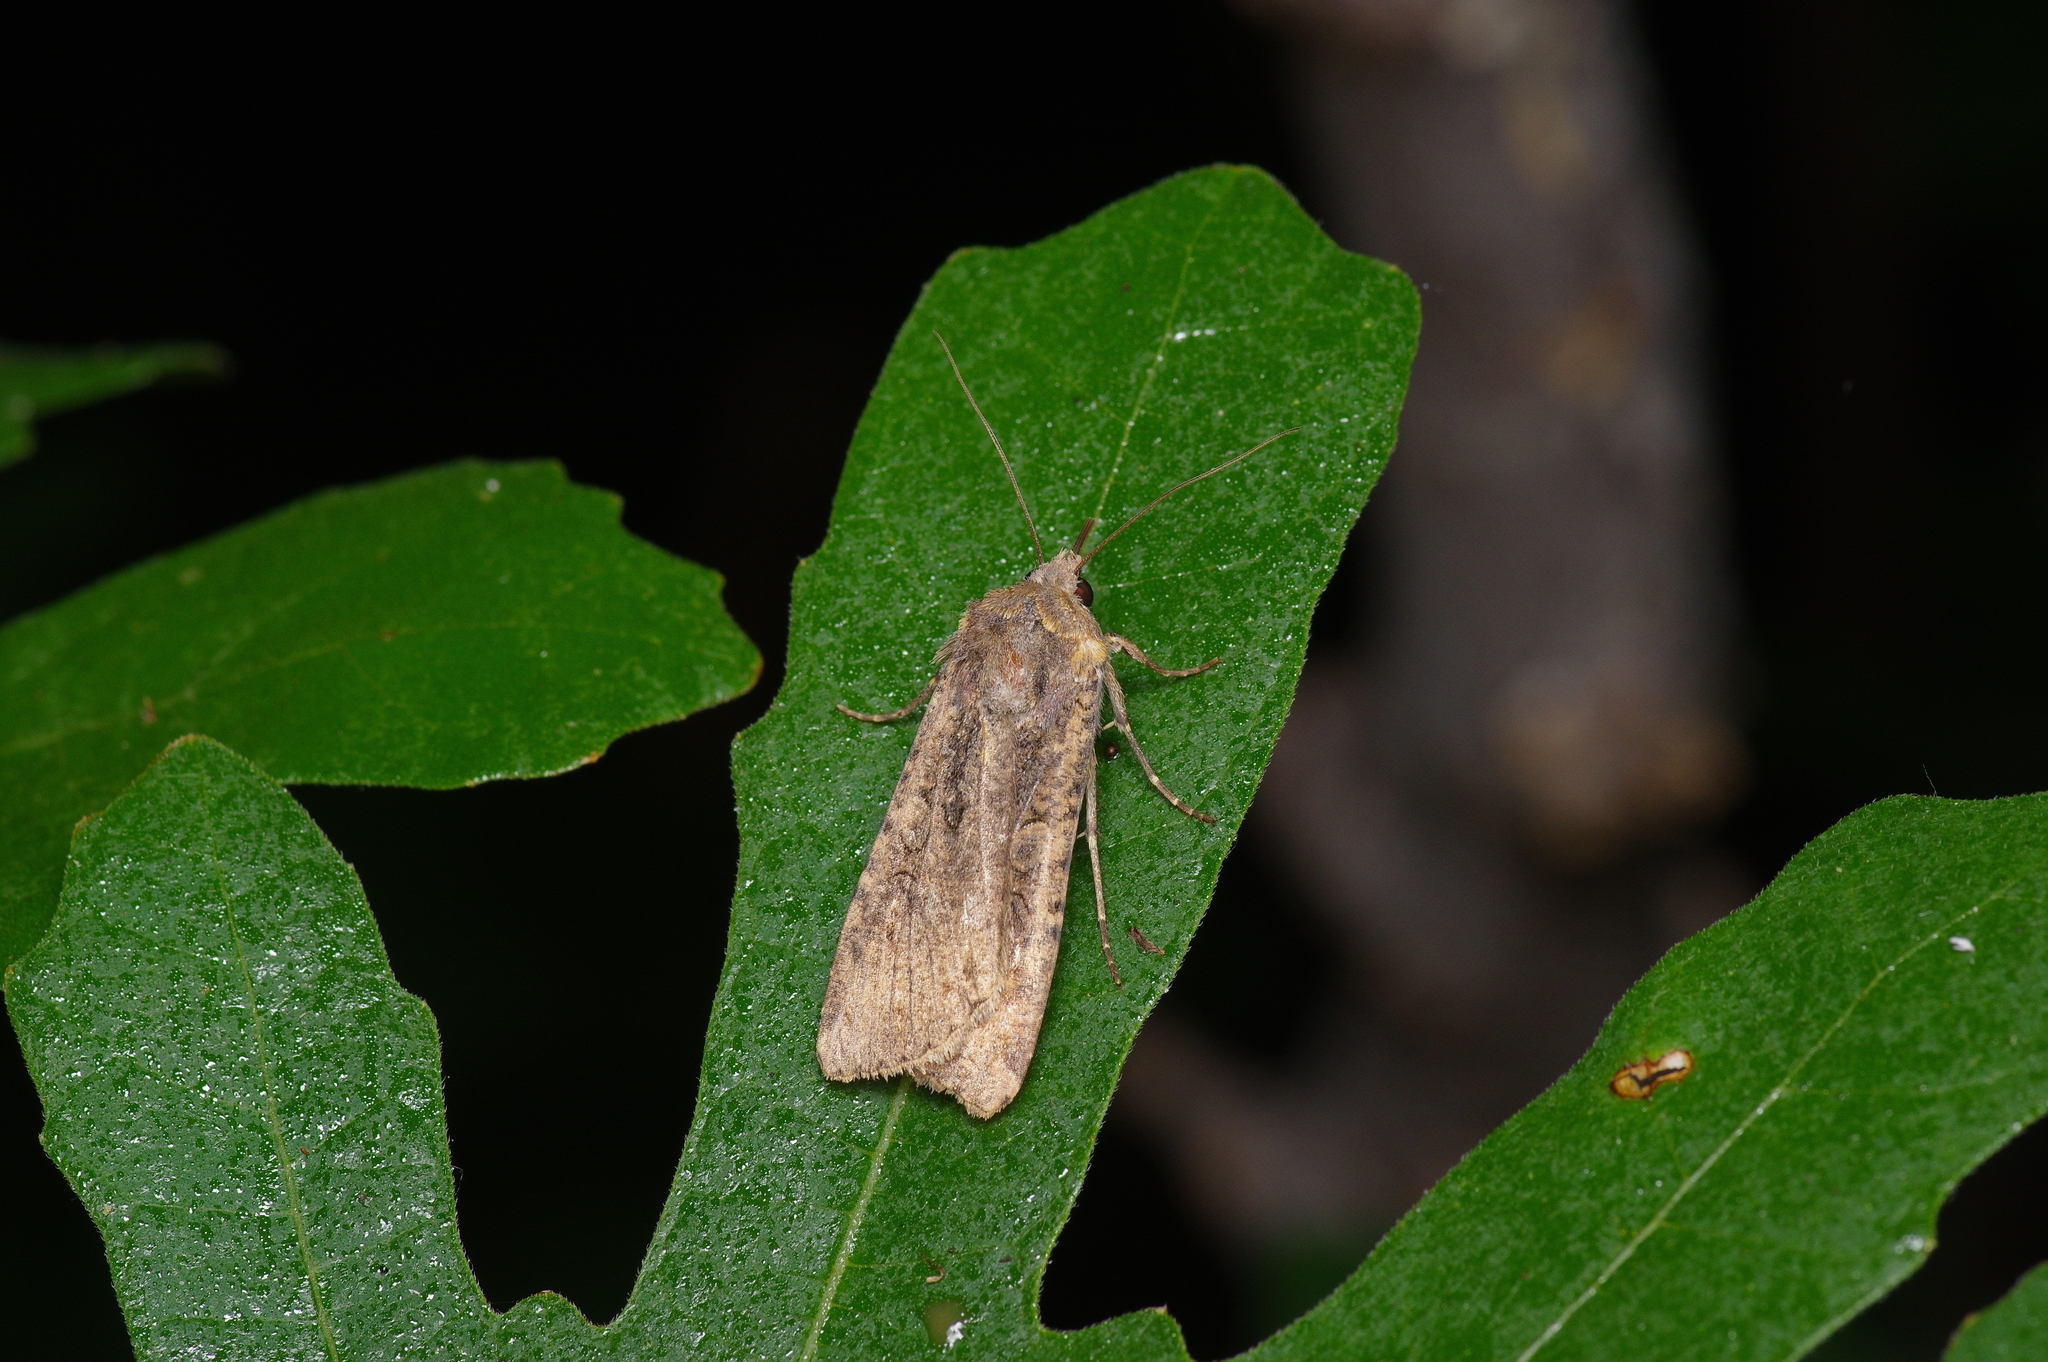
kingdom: Animalia
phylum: Arthropoda
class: Insecta
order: Lepidoptera
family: Noctuidae
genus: Peridroma
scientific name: Peridroma saucia
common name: Pearly underwing
